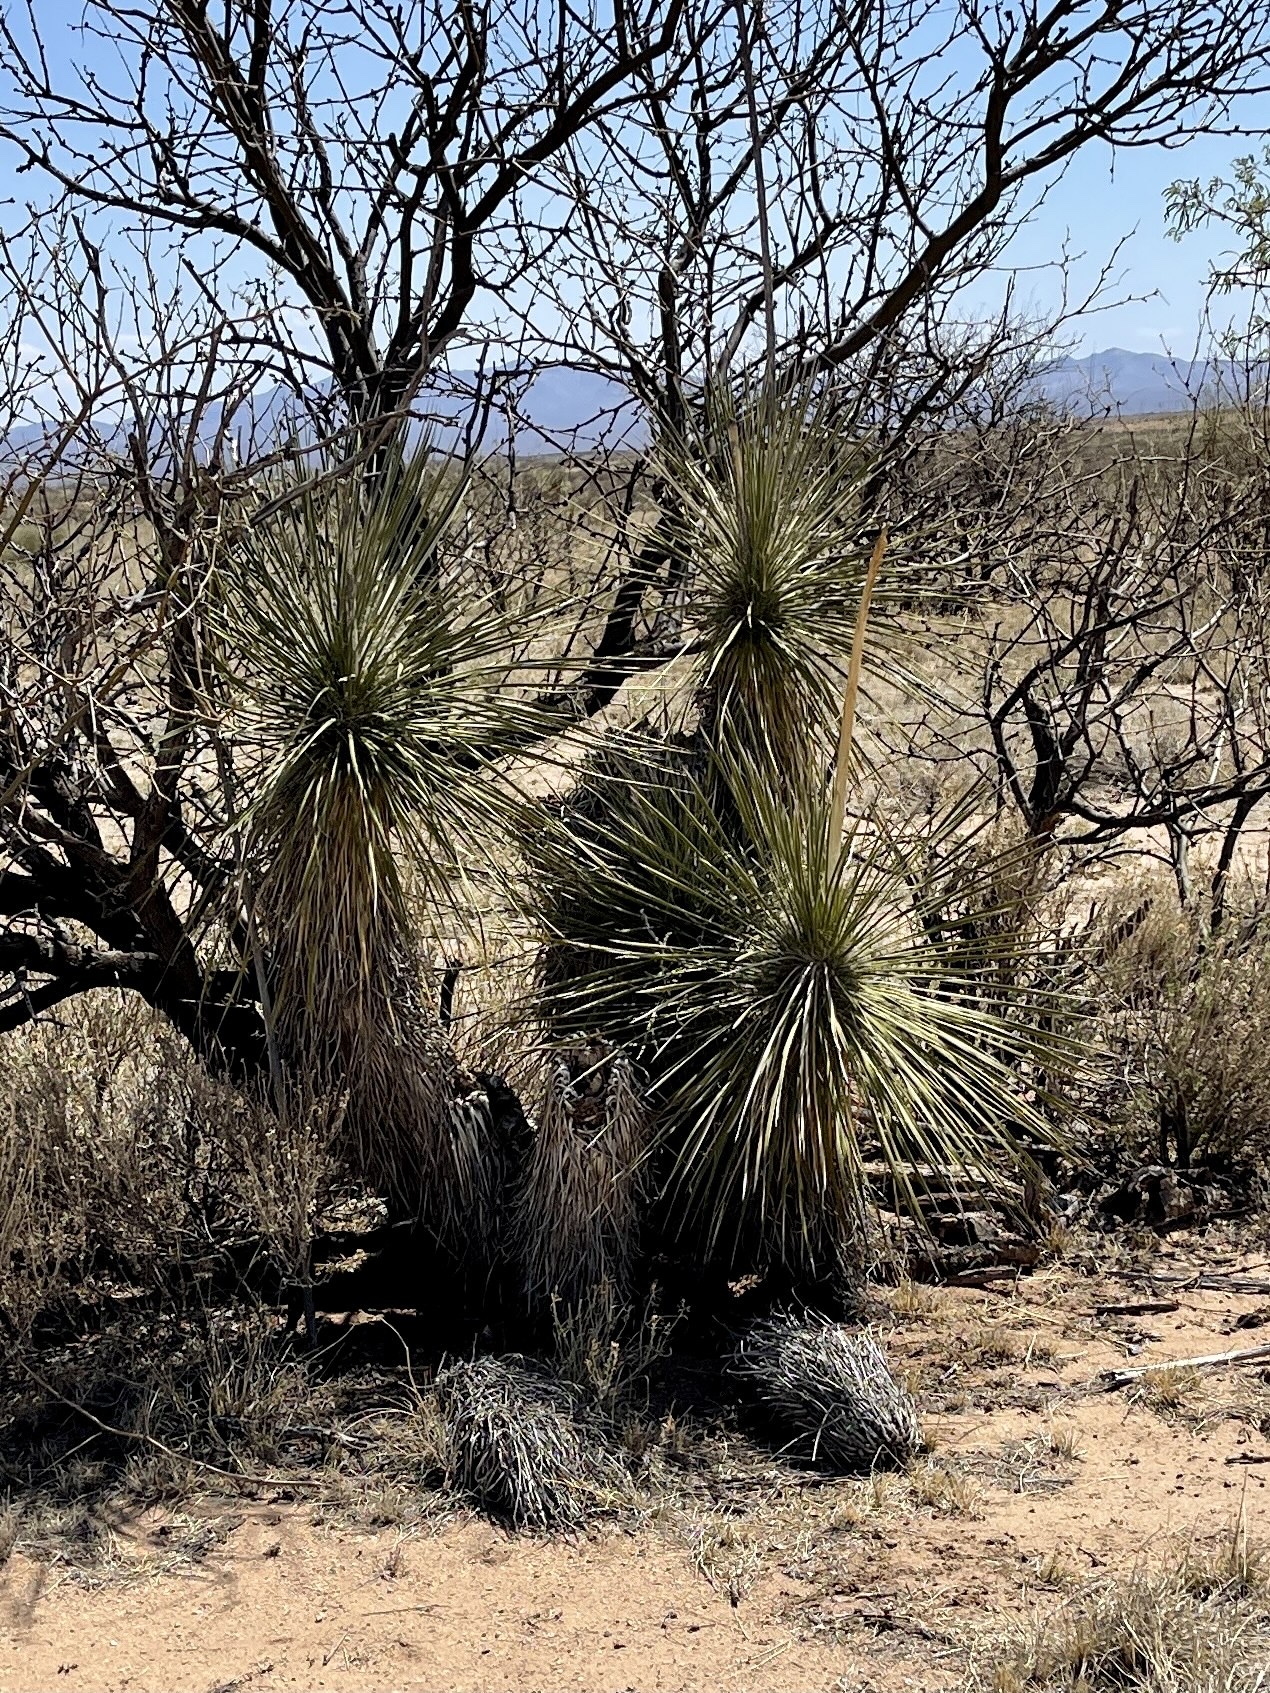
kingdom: Plantae
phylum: Tracheophyta
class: Liliopsida
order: Asparagales
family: Asparagaceae
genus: Yucca
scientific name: Yucca elata
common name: Palmella
